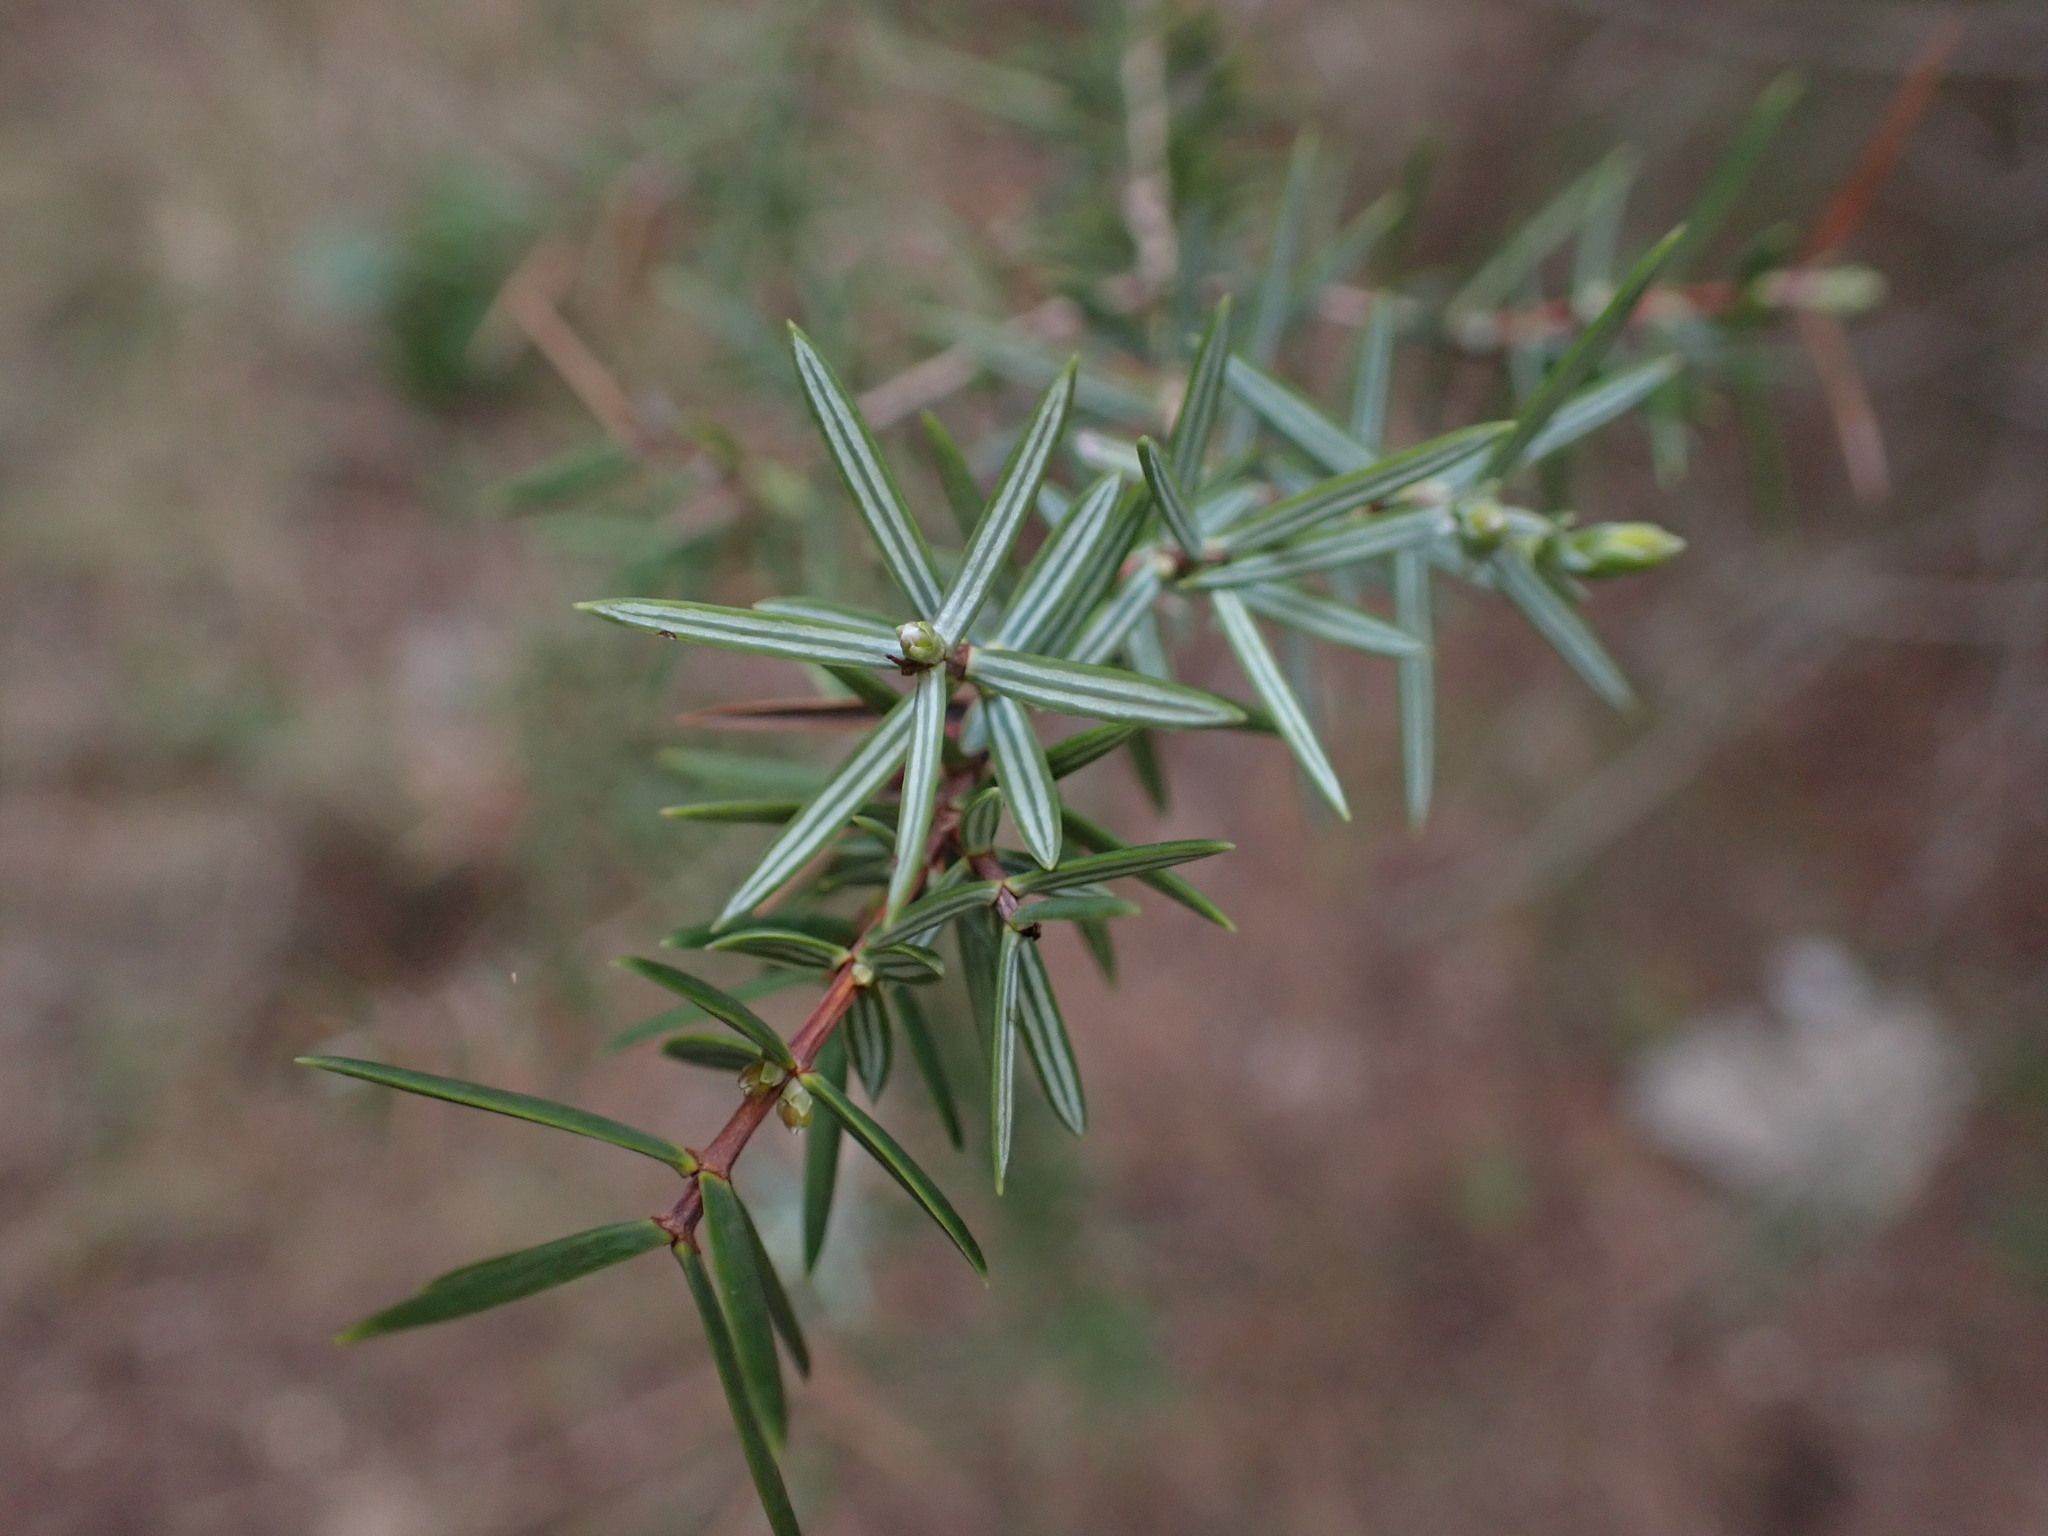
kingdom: Plantae
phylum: Tracheophyta
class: Pinopsida
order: Pinales
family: Cupressaceae
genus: Juniperus
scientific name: Juniperus oxycedrus
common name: Prickly juniper
